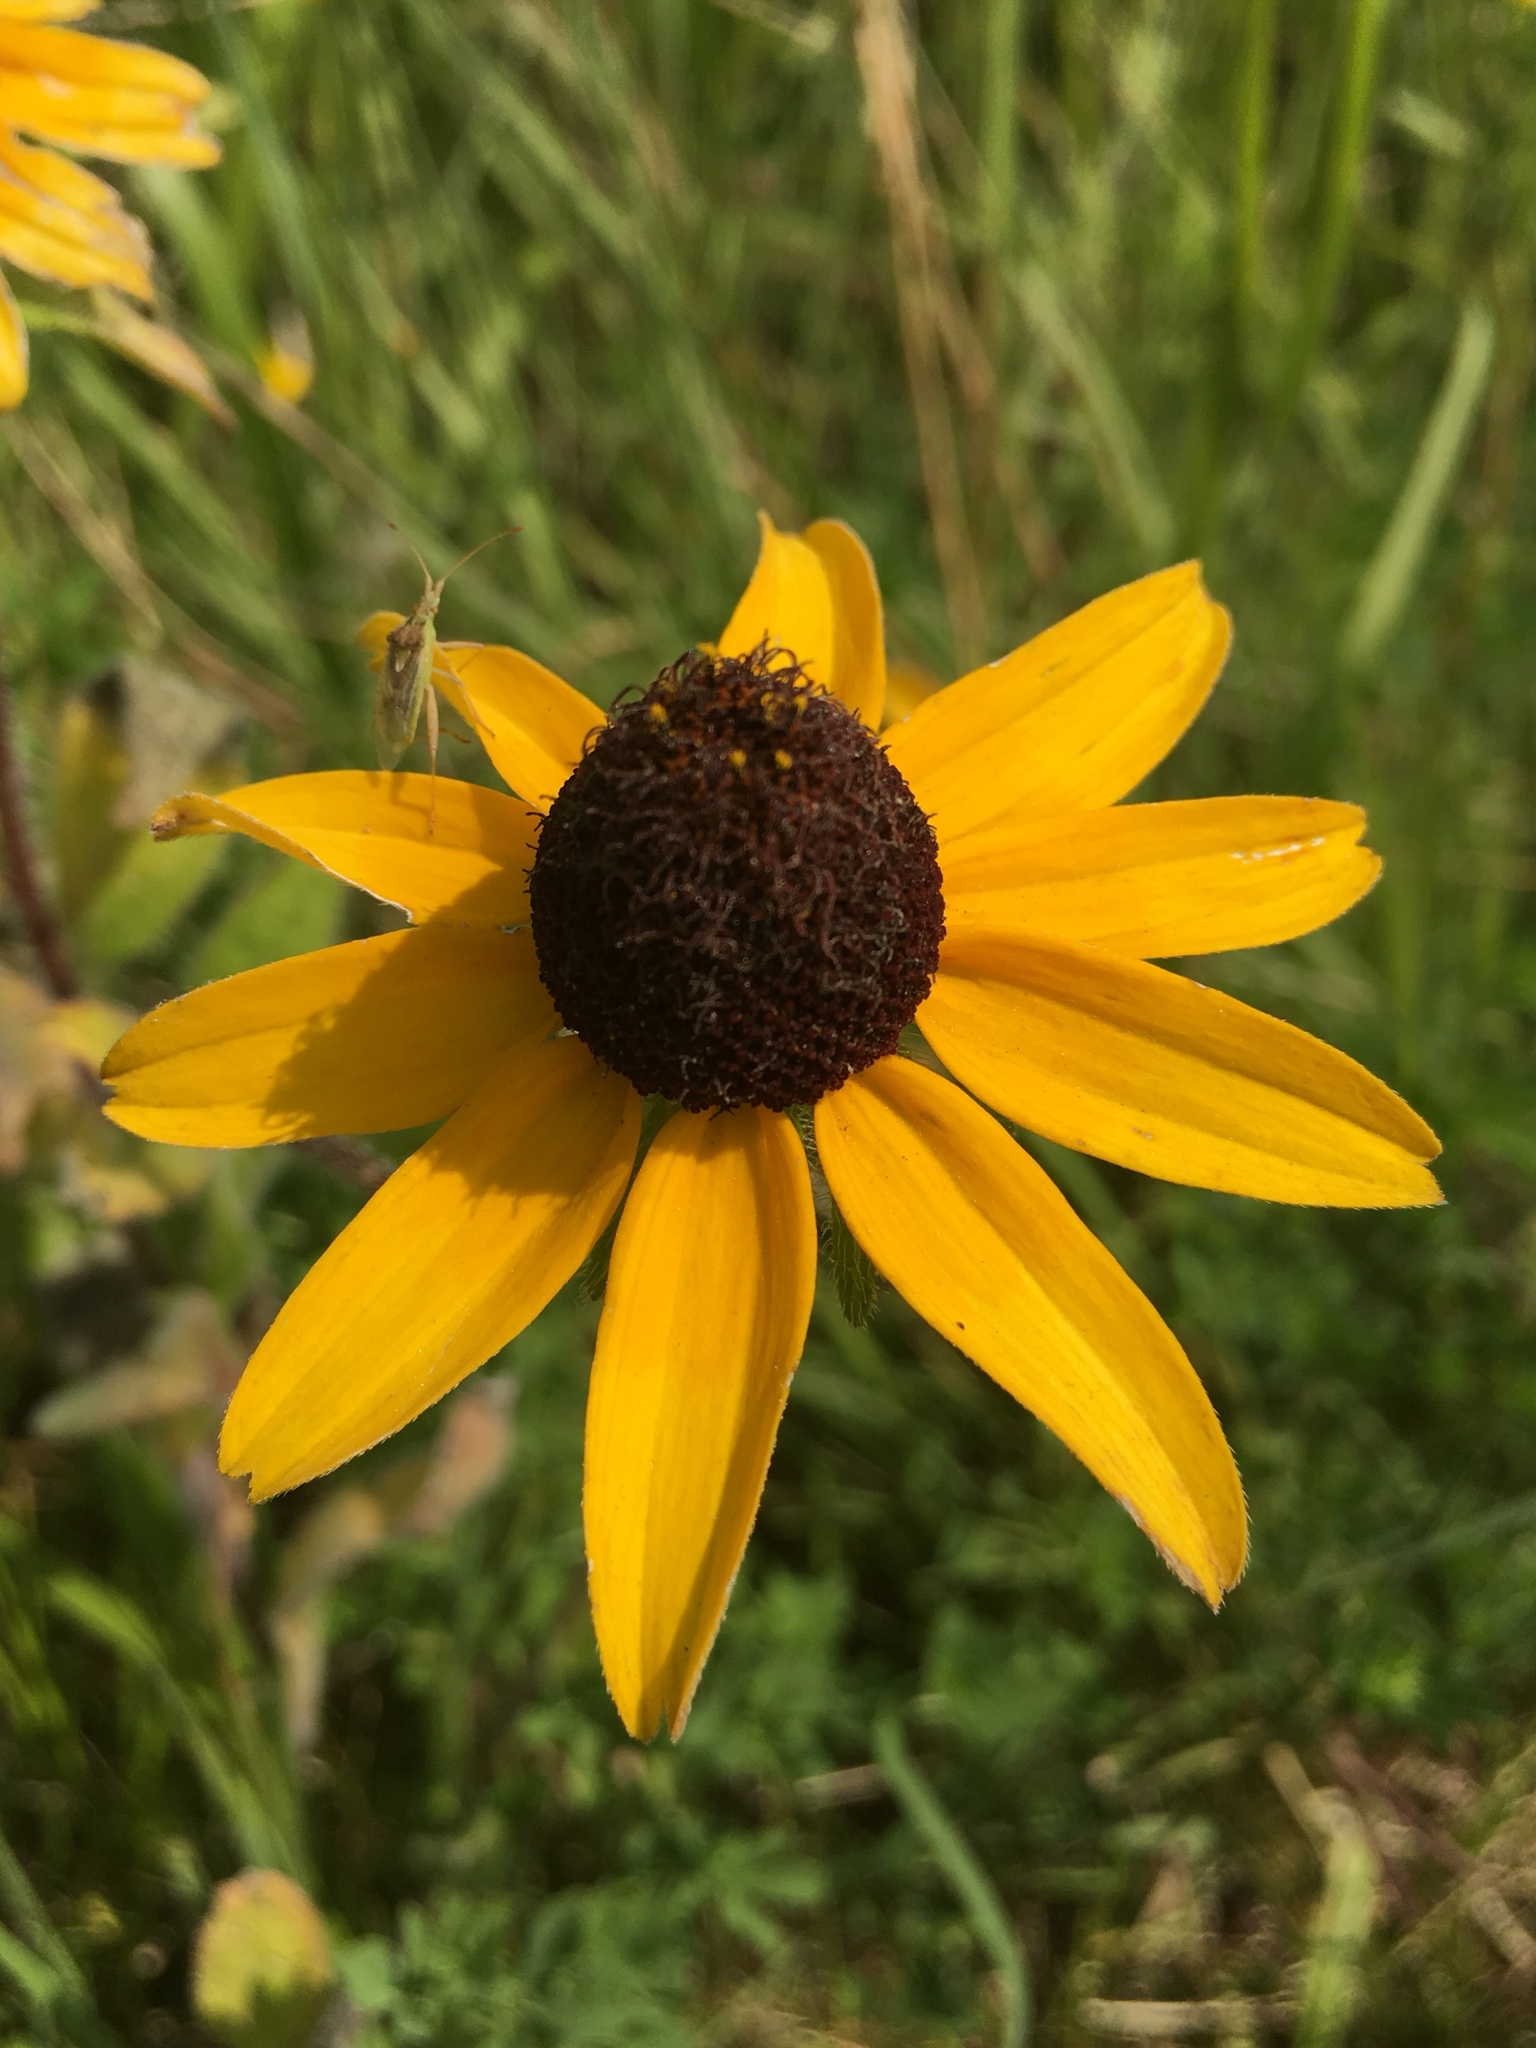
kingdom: Plantae
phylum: Tracheophyta
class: Magnoliopsida
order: Asterales
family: Asteraceae
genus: Rudbeckia
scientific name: Rudbeckia hirta
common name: Black-eyed-susan
